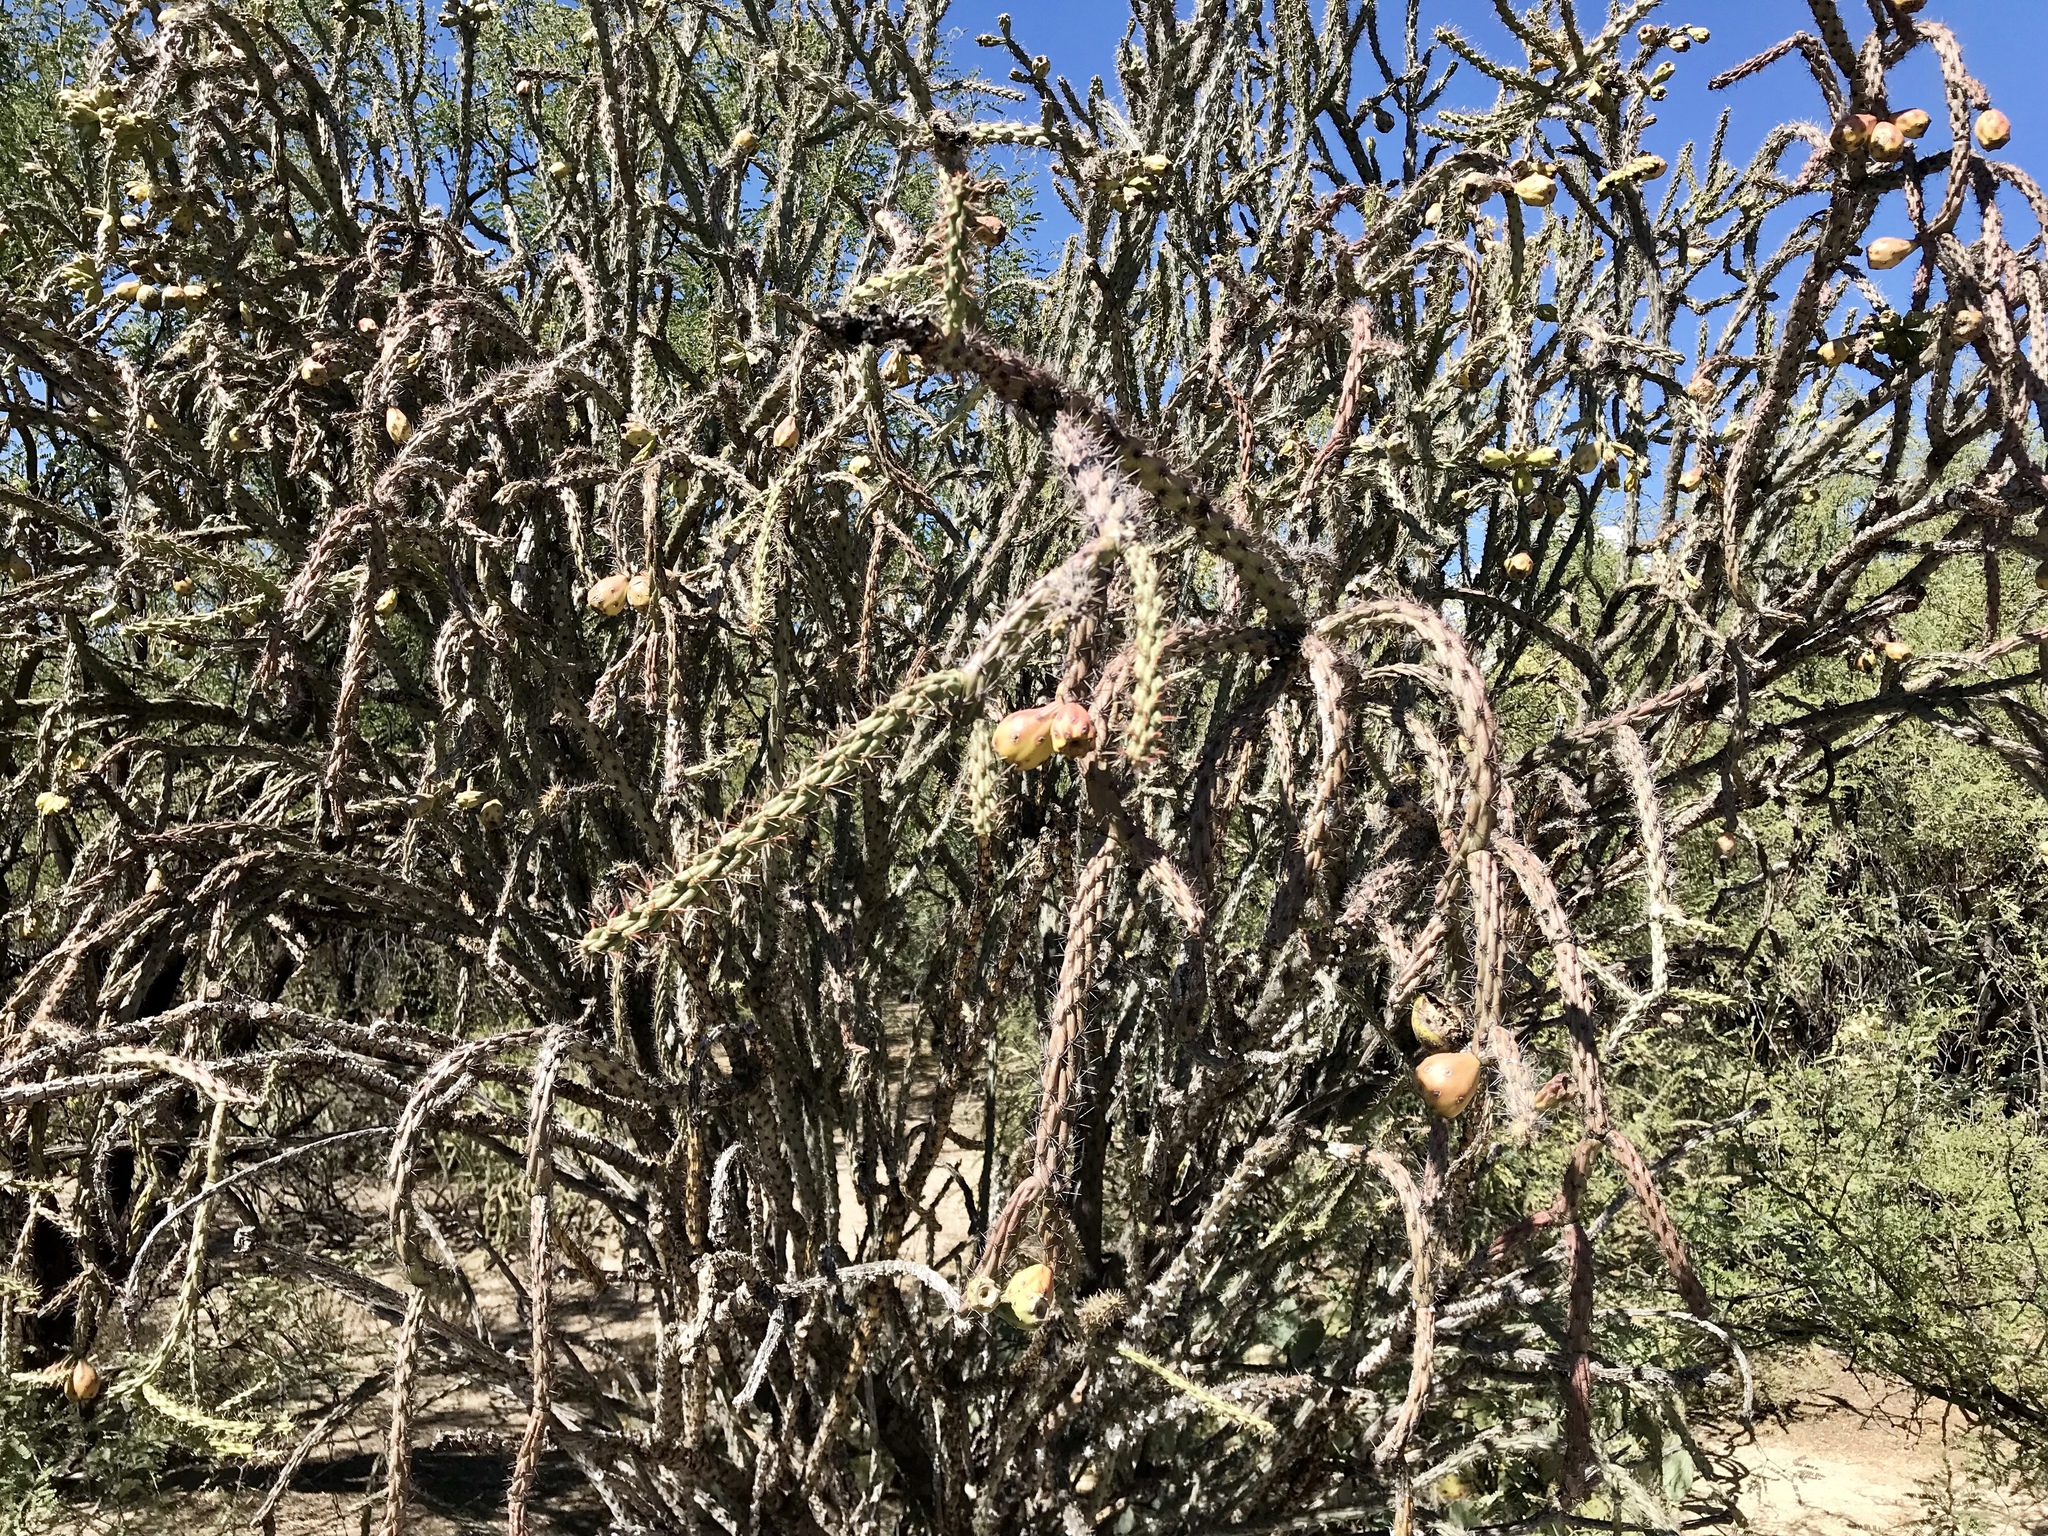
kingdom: Plantae
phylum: Tracheophyta
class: Magnoliopsida
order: Caryophyllales
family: Cactaceae
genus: Cylindropuntia
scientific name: Cylindropuntia thurberi
